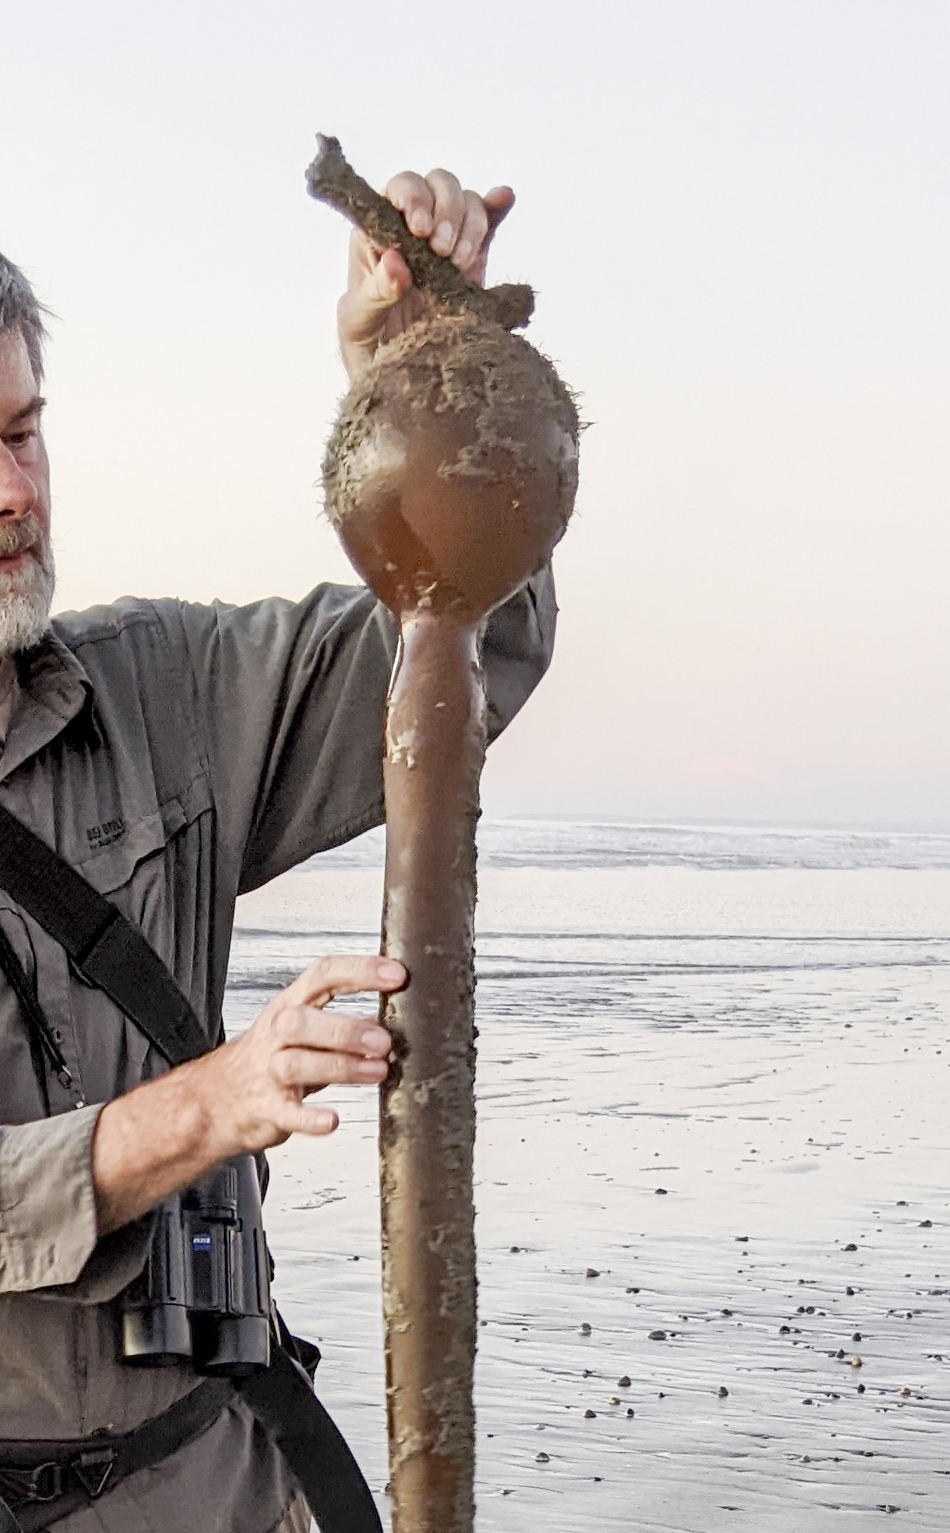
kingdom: Chromista
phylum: Ochrophyta
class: Phaeophyceae
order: Laminariales
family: Laminariaceae
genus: Pelagophycus
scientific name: Pelagophycus porra
